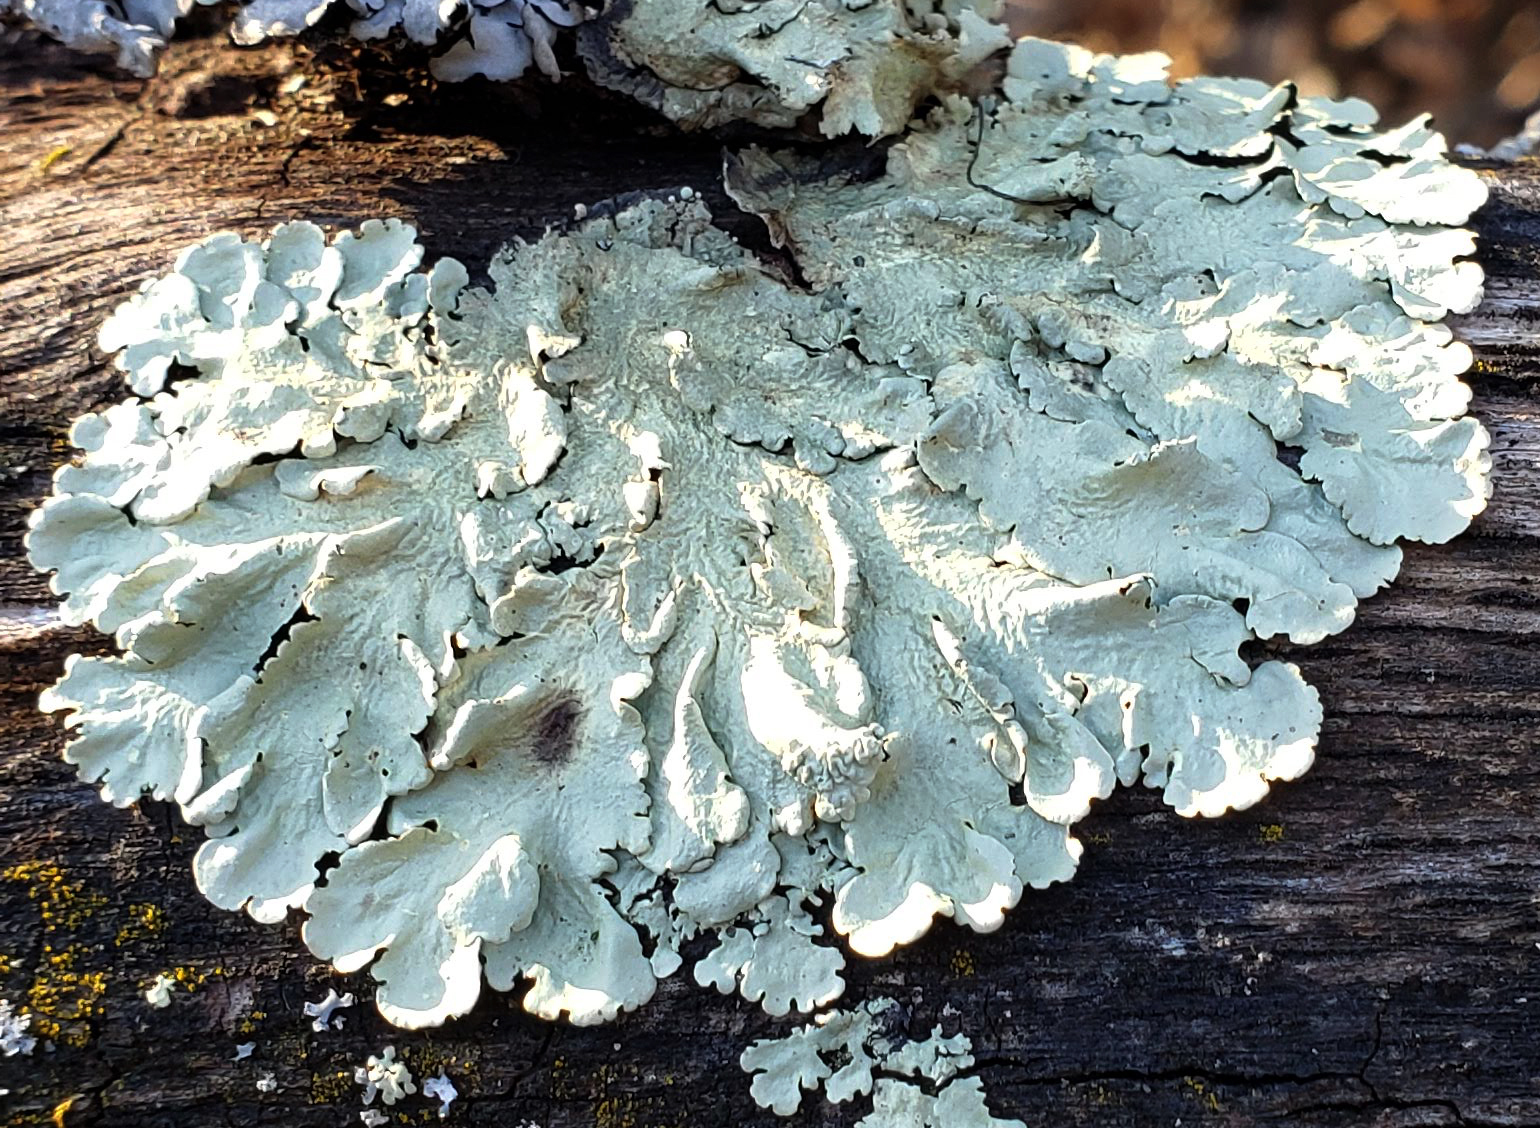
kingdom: Fungi
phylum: Ascomycota
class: Lecanoromycetes
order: Lecanorales
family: Parmeliaceae
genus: Flavoparmelia
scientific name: Flavoparmelia caperata
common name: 40-mile per hour lichen
